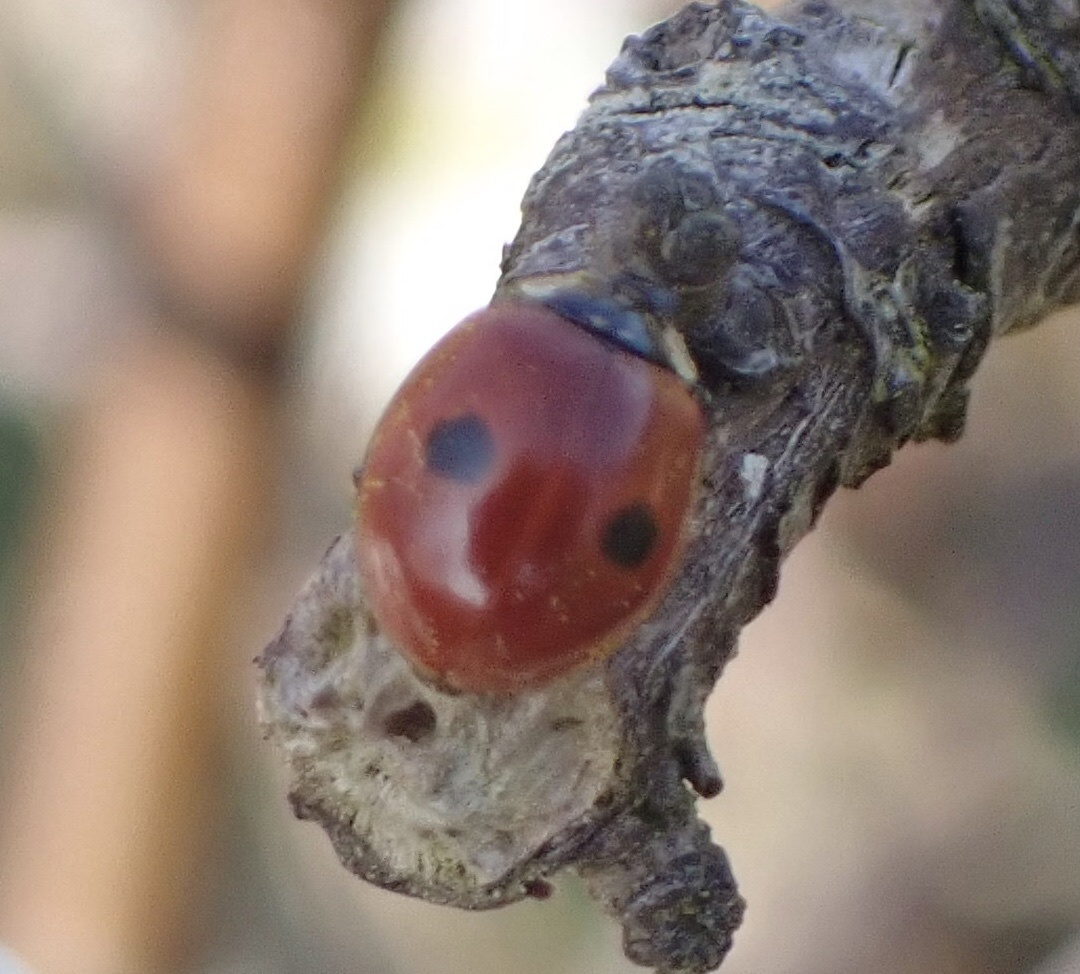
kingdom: Animalia
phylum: Arthropoda
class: Insecta
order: Coleoptera
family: Coccinellidae
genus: Adalia
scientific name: Adalia bipunctata
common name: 2-spot ladybird
